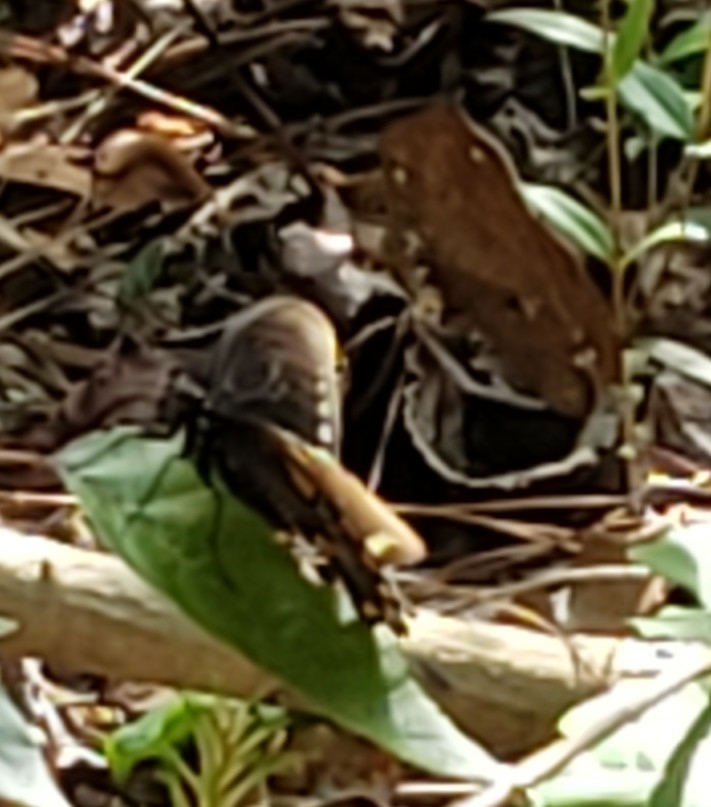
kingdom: Animalia
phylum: Arthropoda
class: Insecta
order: Lepidoptera
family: Papilionidae
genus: Papilio
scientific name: Papilio troilus
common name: Spicebush swallowtail
